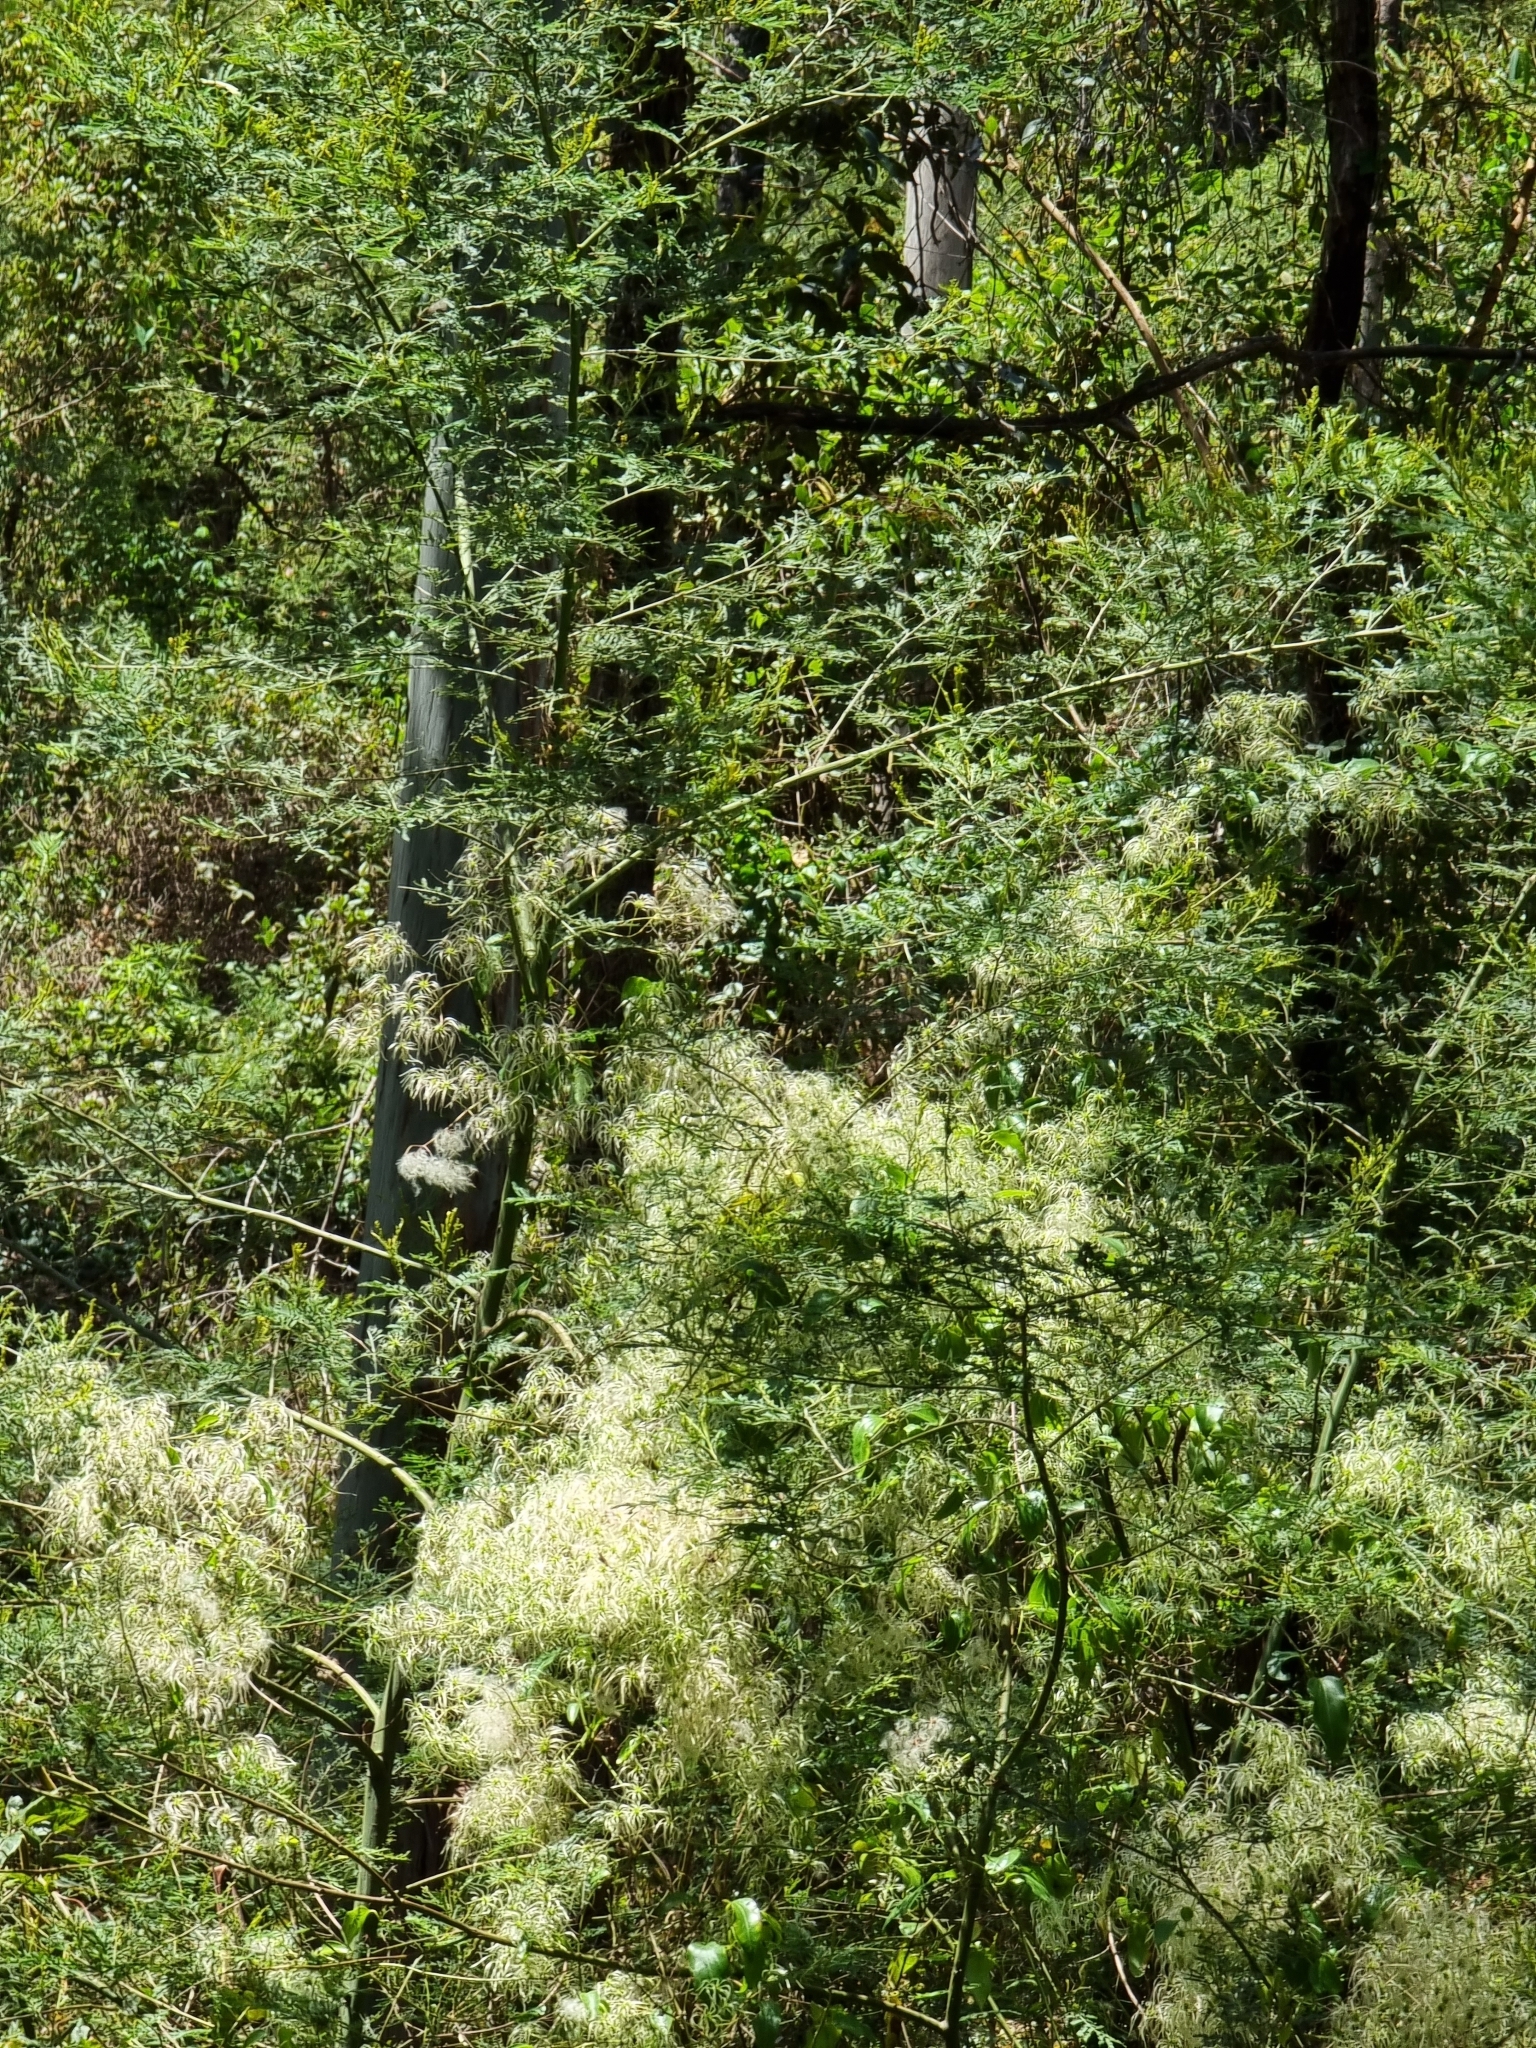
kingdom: Plantae
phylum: Tracheophyta
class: Magnoliopsida
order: Ranunculales
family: Ranunculaceae
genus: Clematis
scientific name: Clematis glycinoides
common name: Forest clematis
